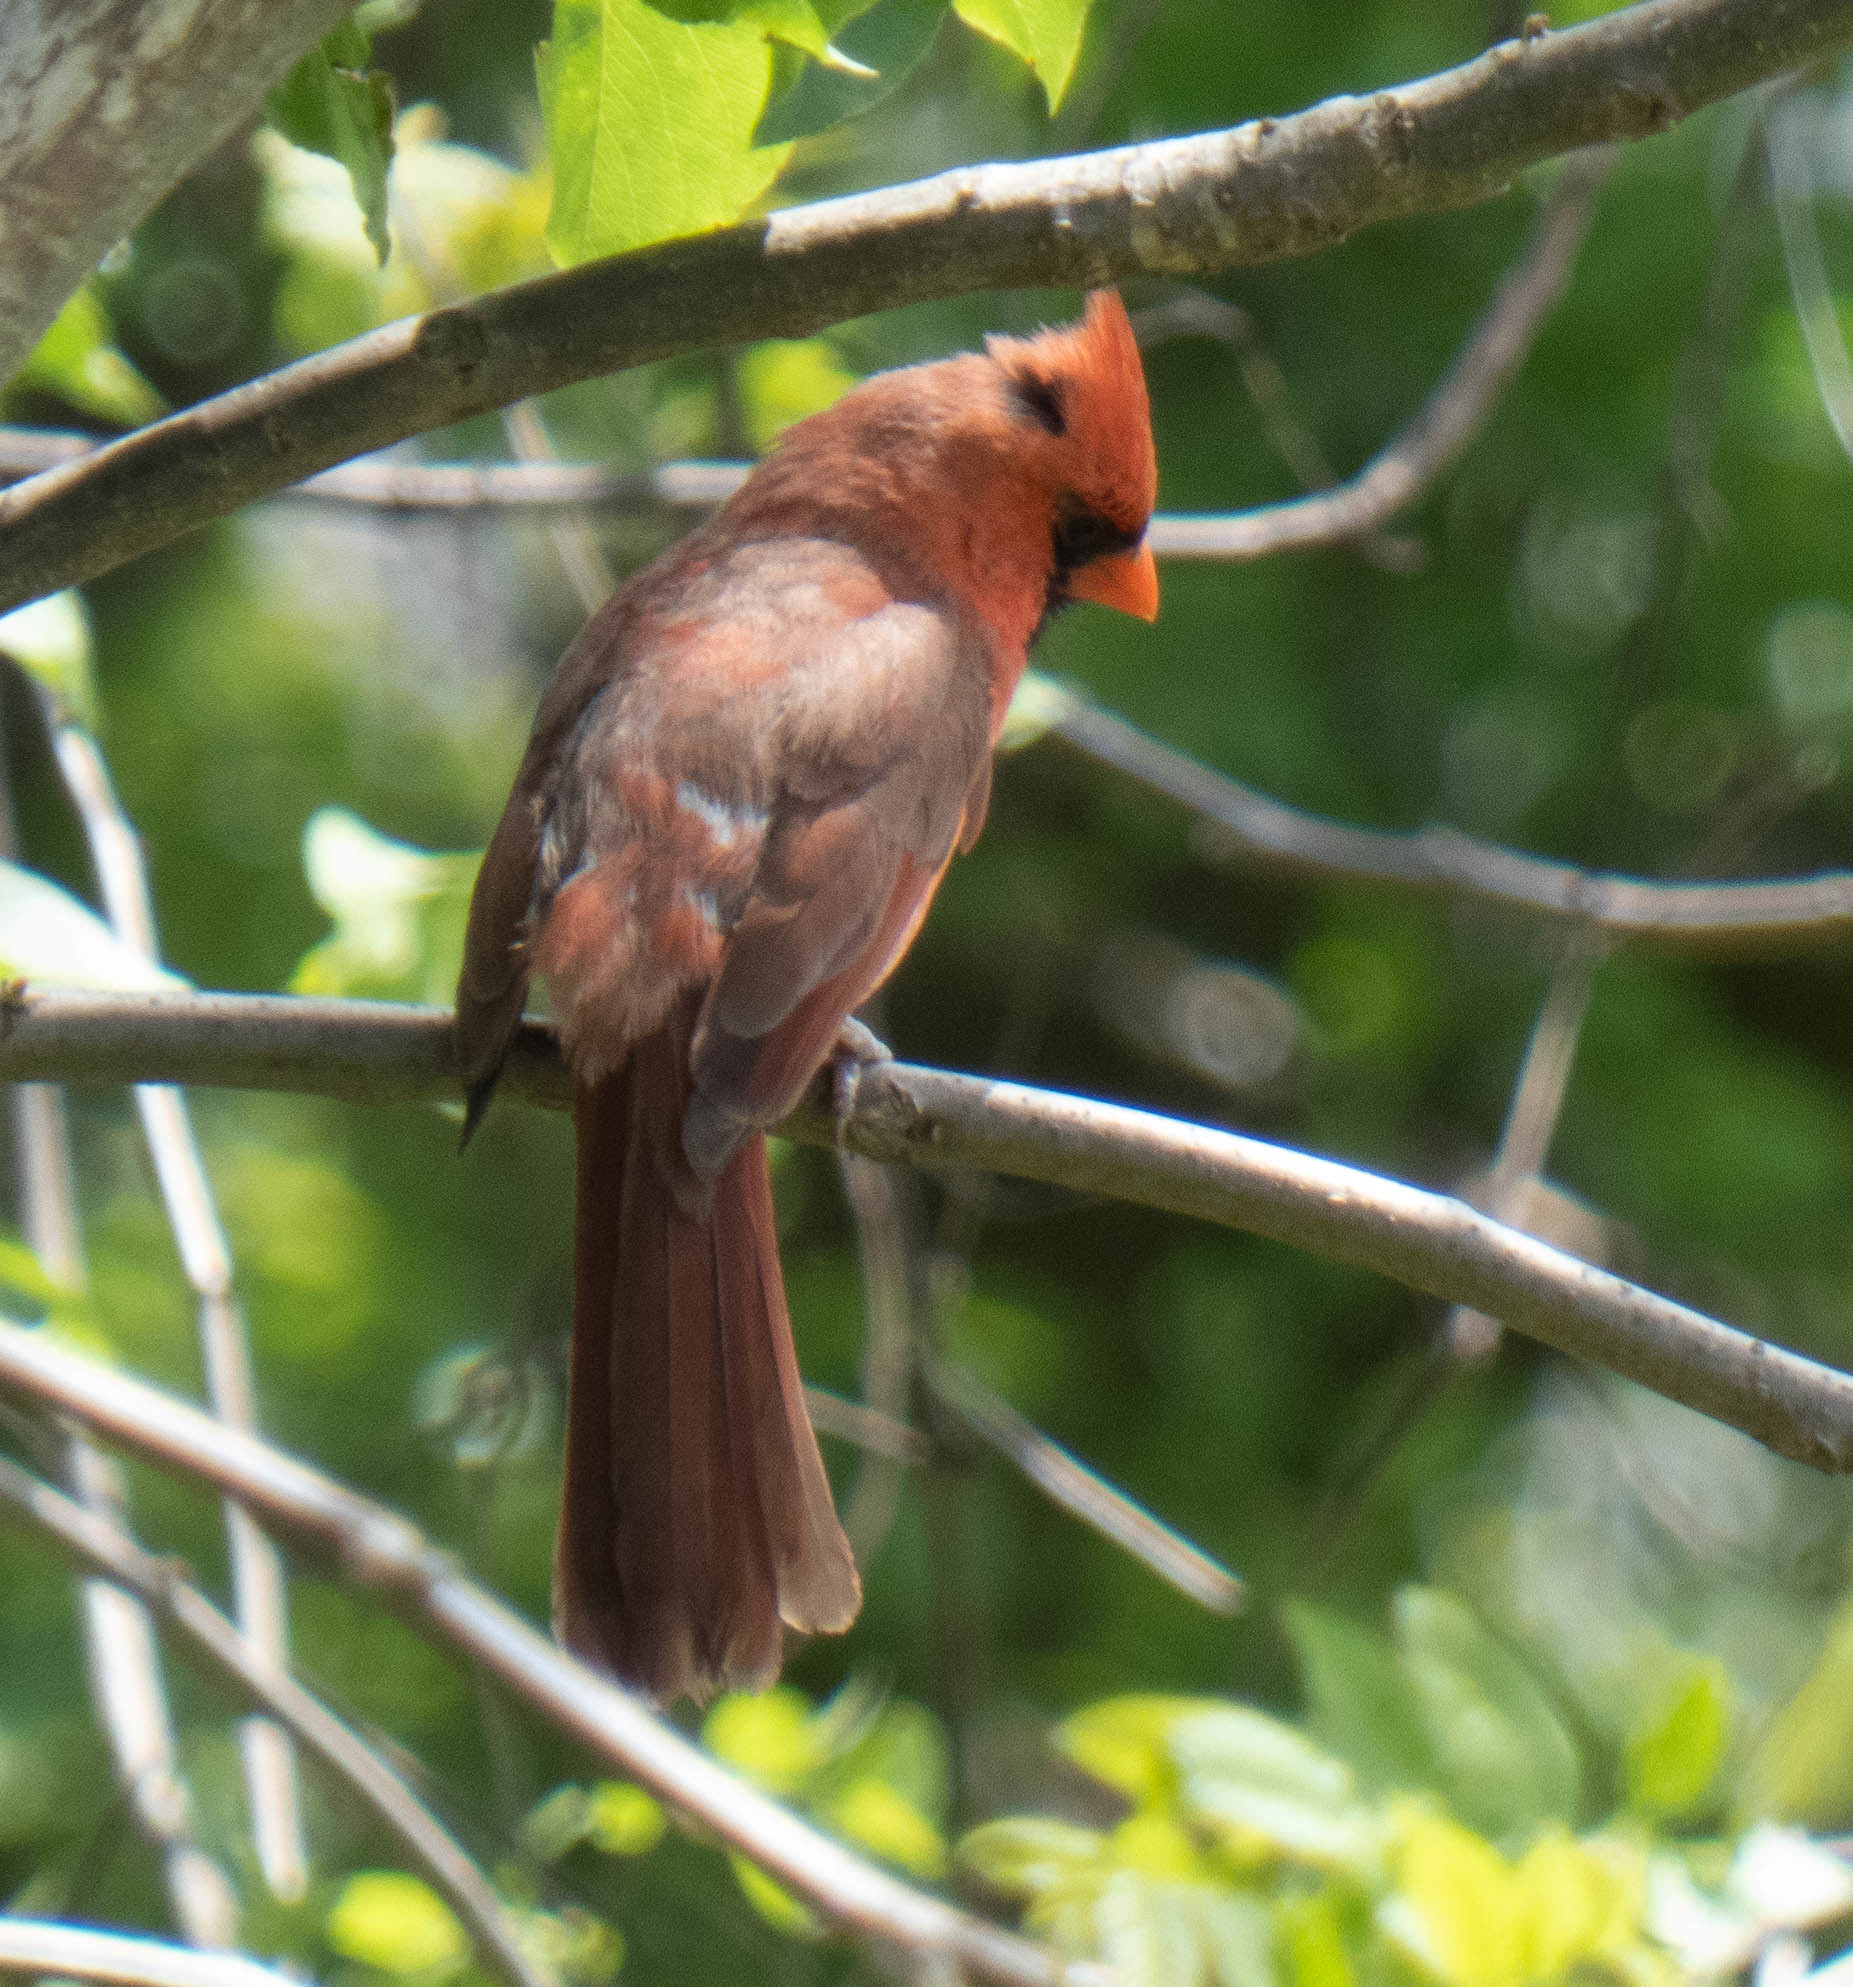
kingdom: Animalia
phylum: Chordata
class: Aves
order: Passeriformes
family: Cardinalidae
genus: Cardinalis
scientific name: Cardinalis cardinalis
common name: Northern cardinal
